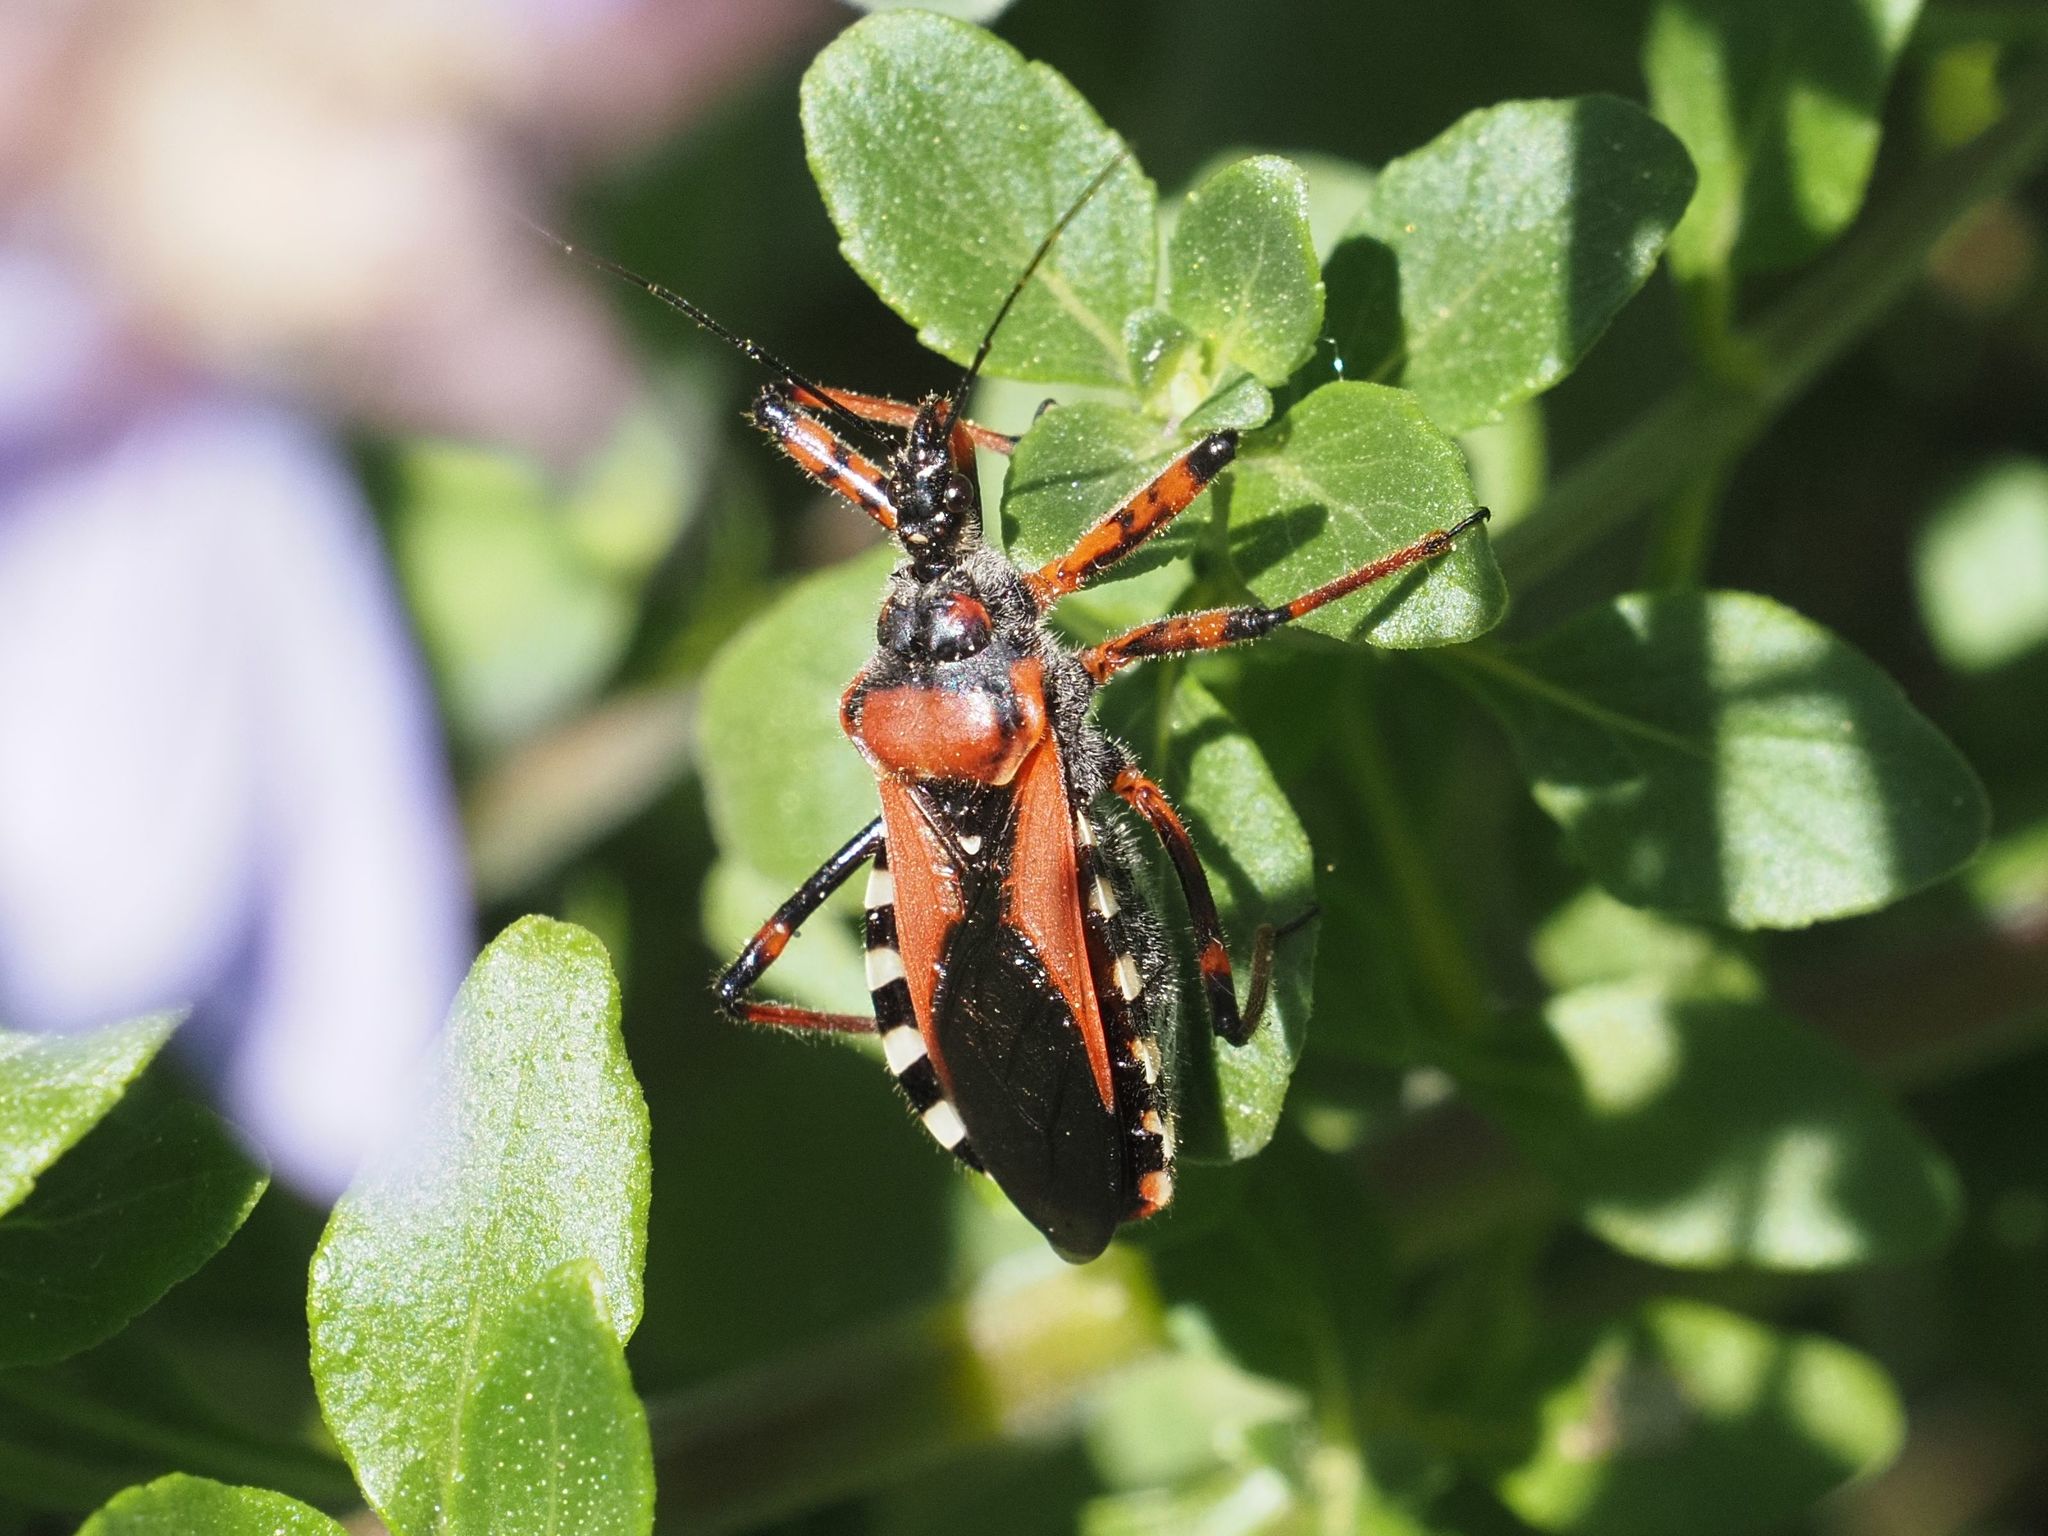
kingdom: Animalia
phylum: Arthropoda
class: Insecta
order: Hemiptera
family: Reduviidae
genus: Rhynocoris
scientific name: Rhynocoris iracundus
